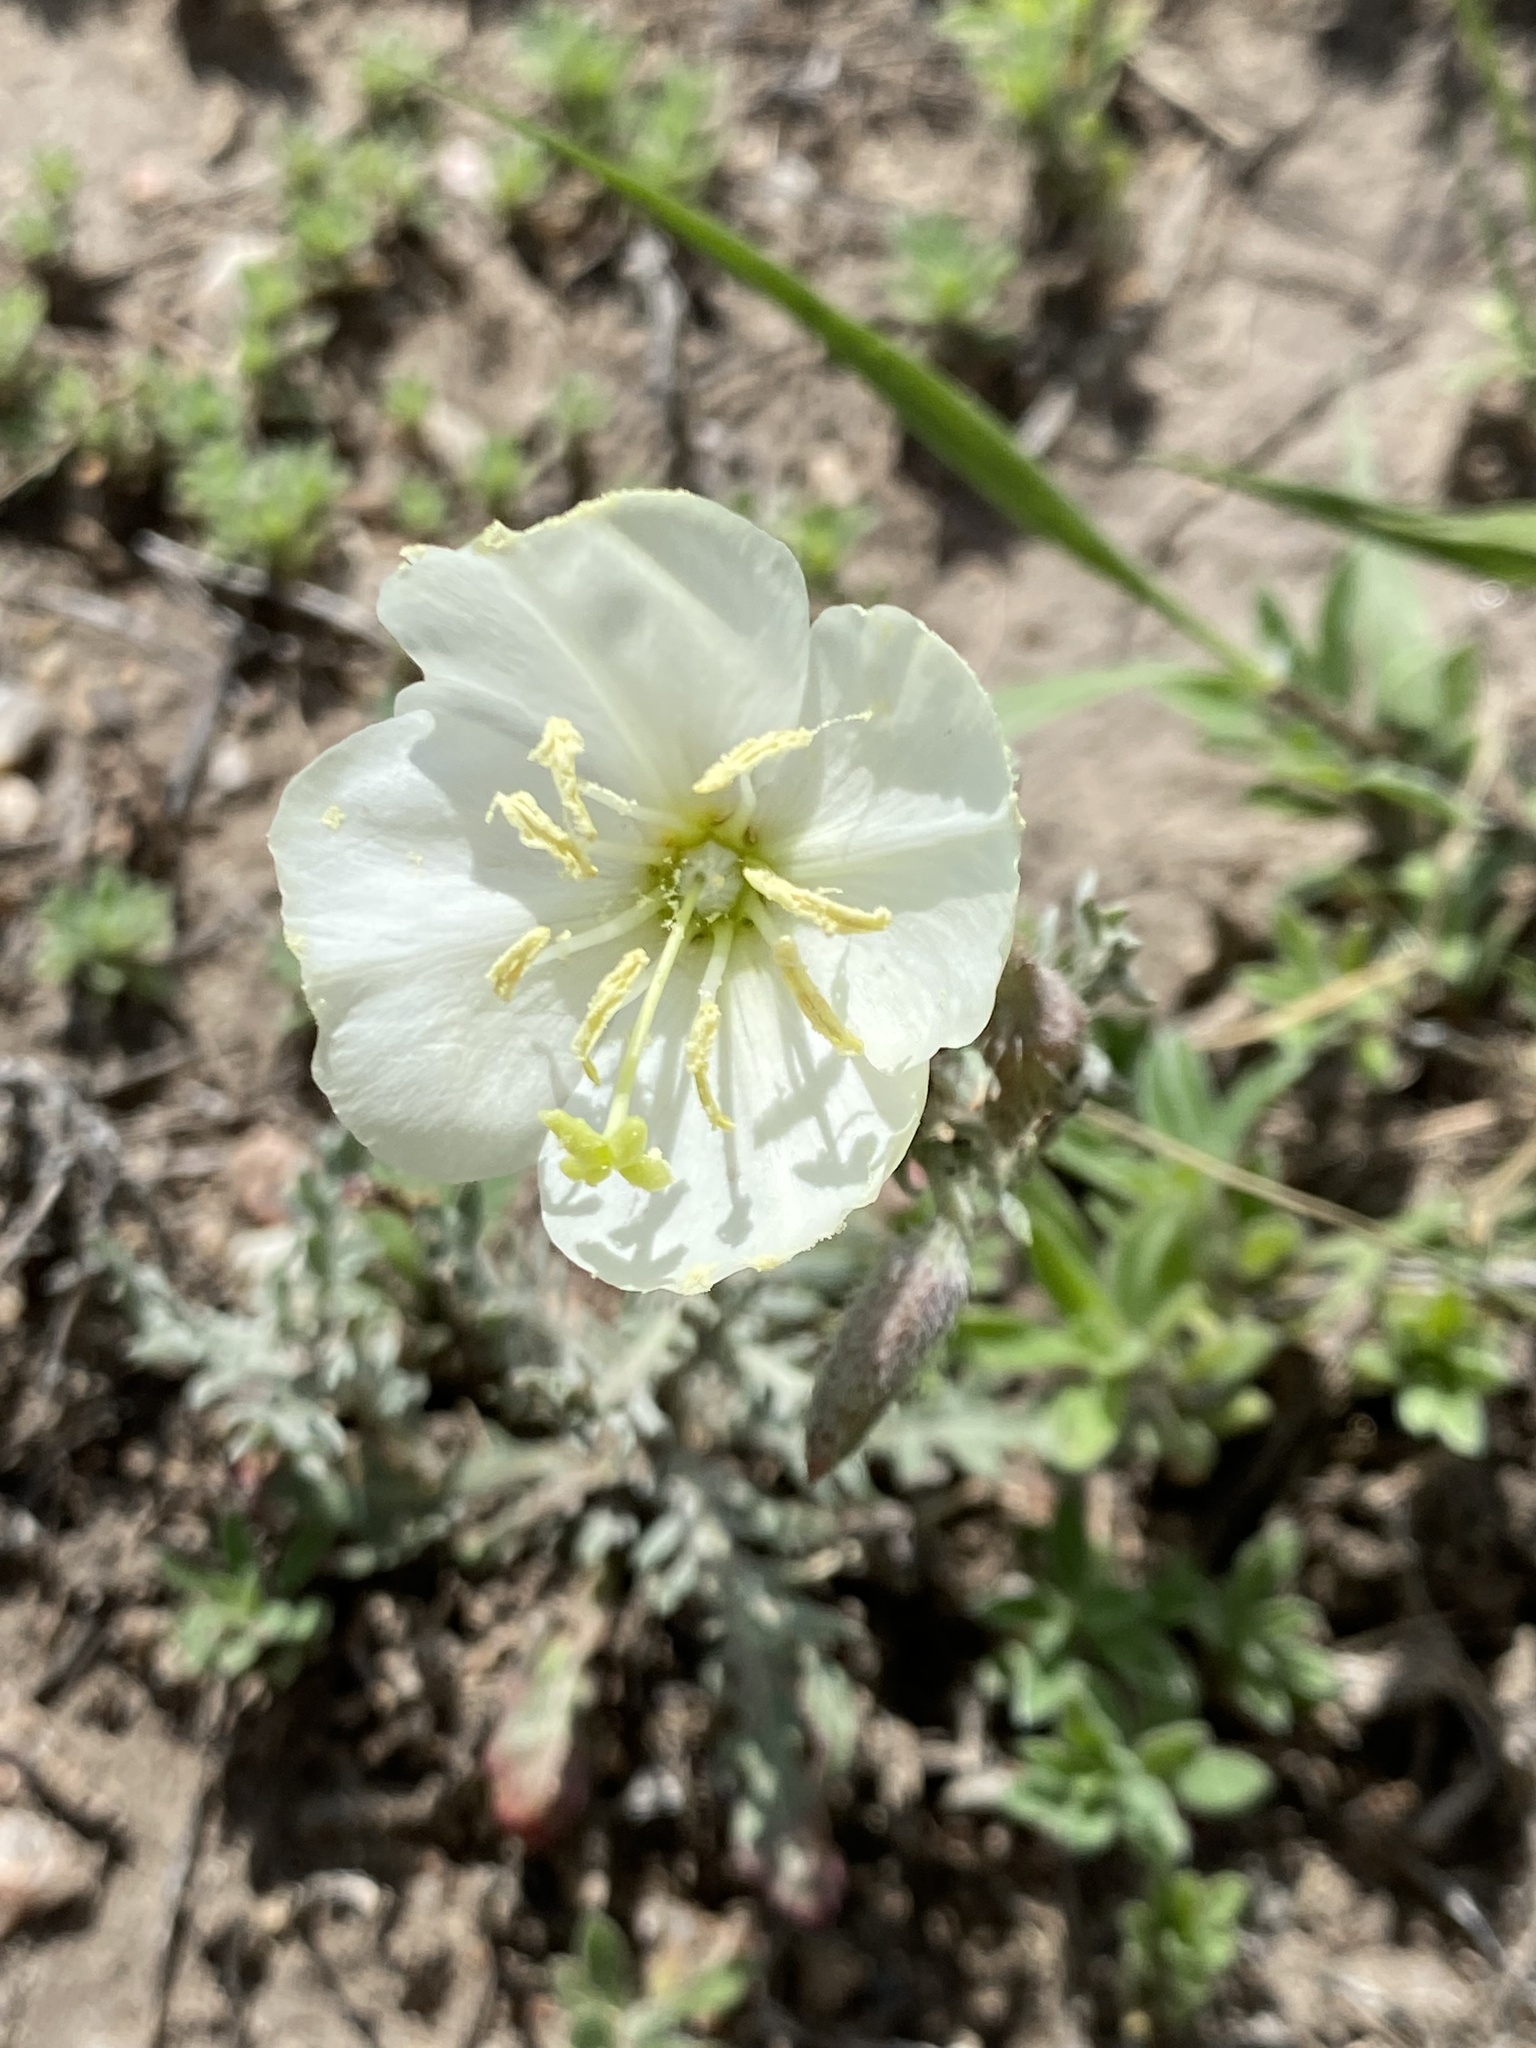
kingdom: Plantae
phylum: Tracheophyta
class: Magnoliopsida
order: Myrtales
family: Onagraceae
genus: Oenothera
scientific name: Oenothera albicaulis
